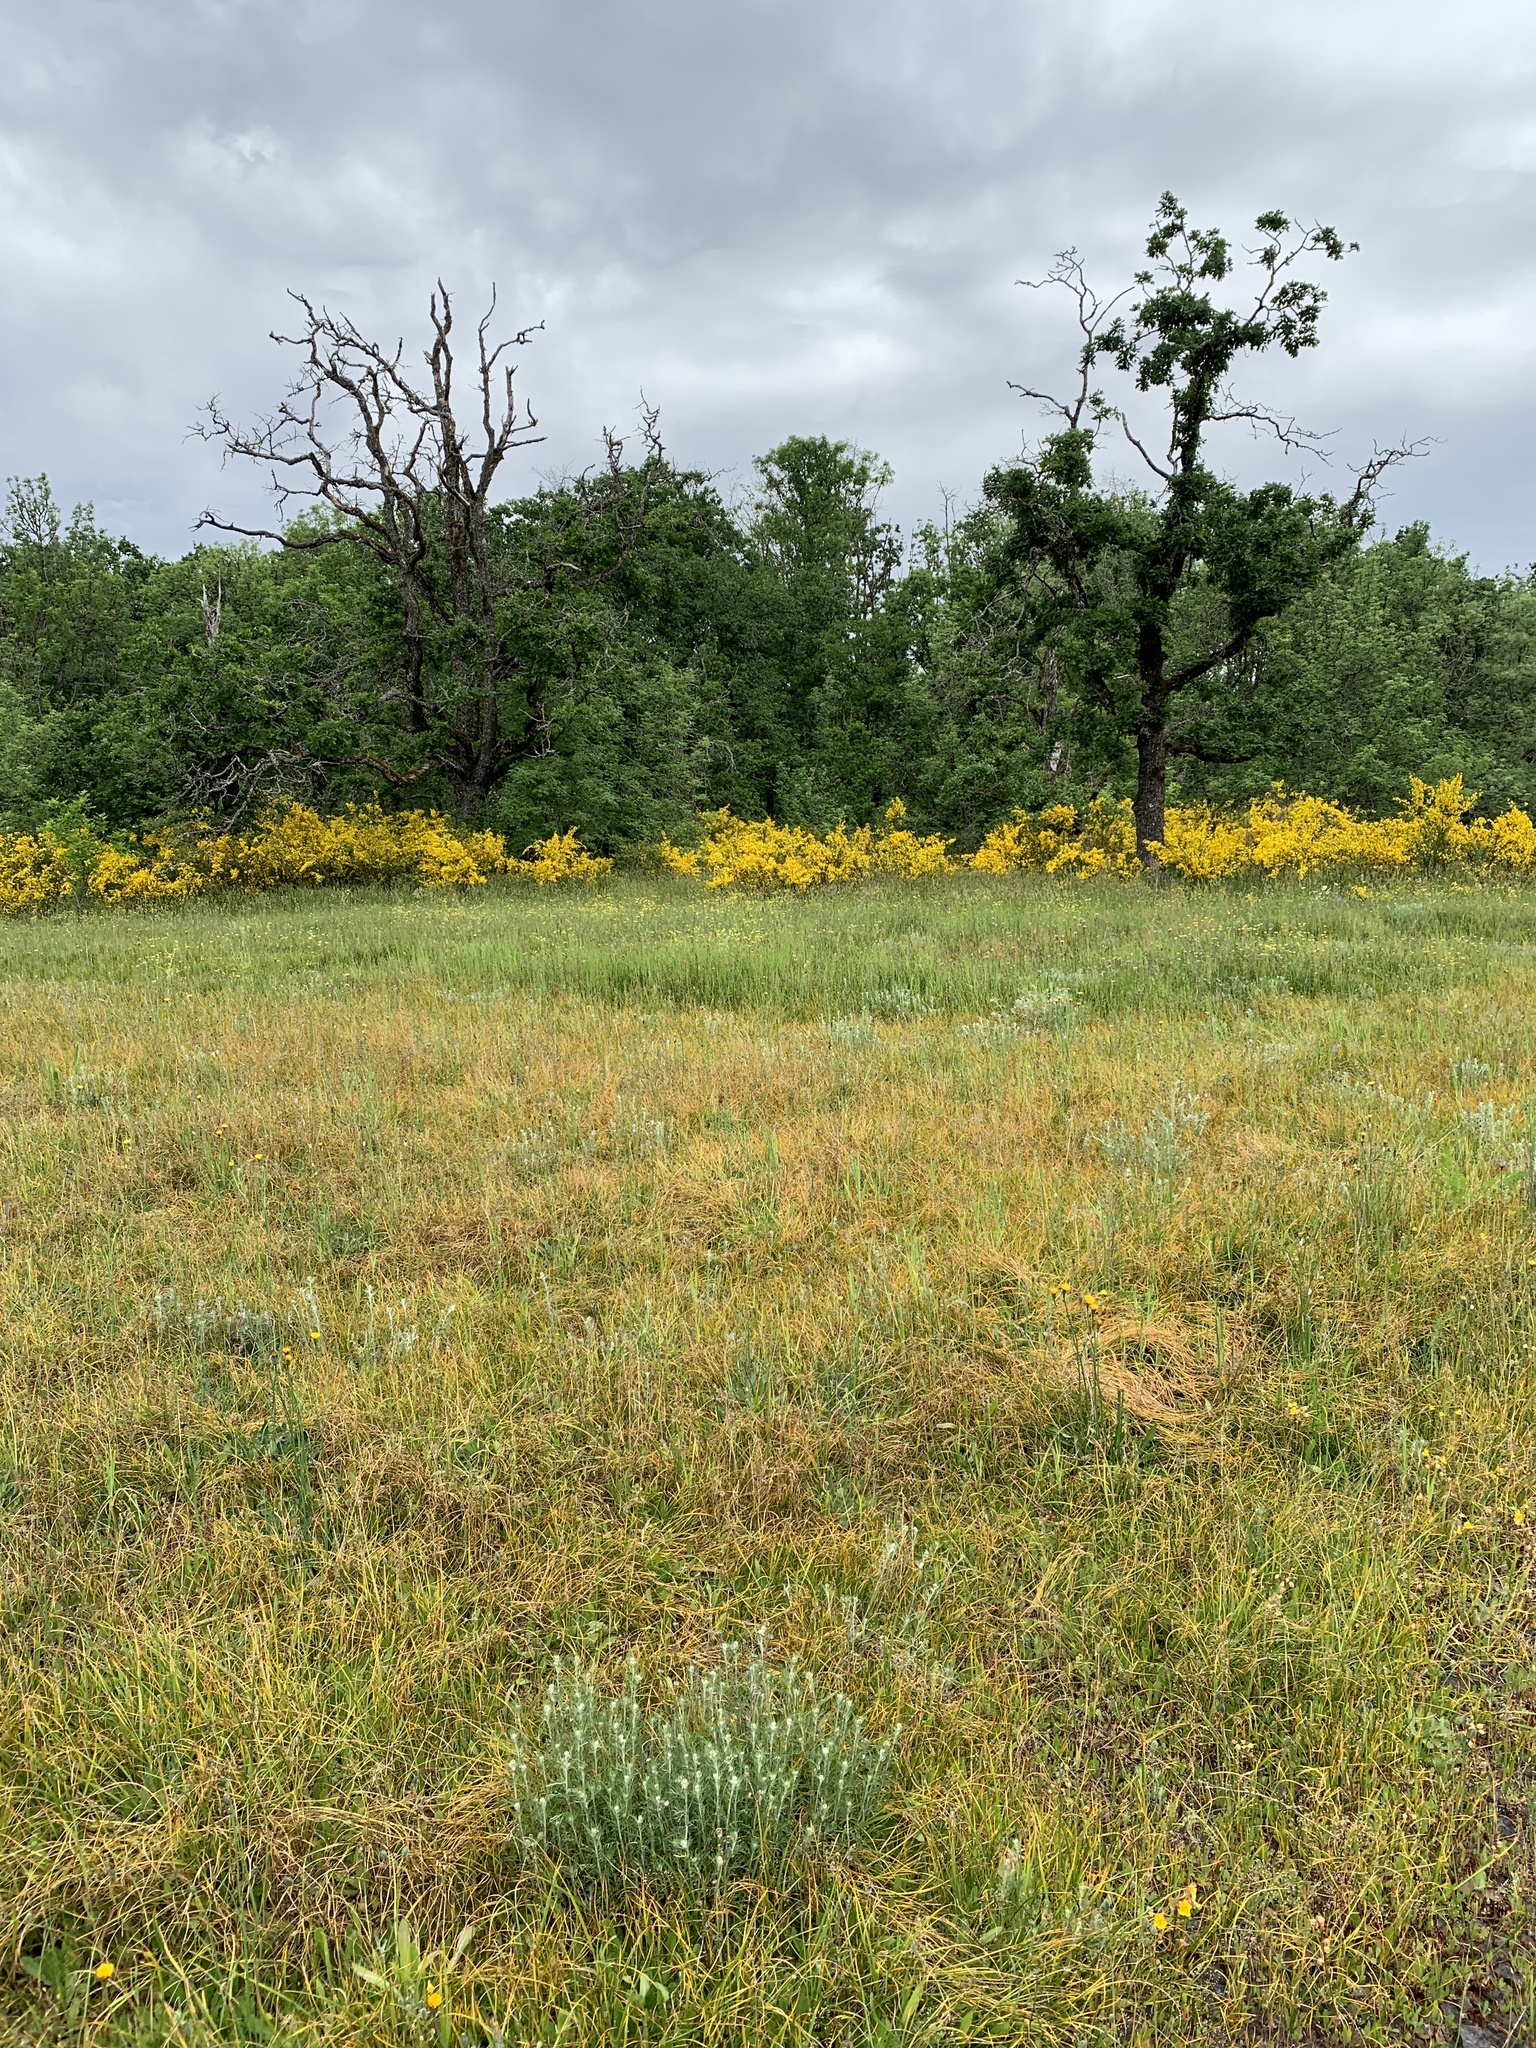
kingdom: Plantae
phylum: Tracheophyta
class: Magnoliopsida
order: Fabales
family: Fabaceae
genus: Cytisus
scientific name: Cytisus scoparius
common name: Scotch broom
